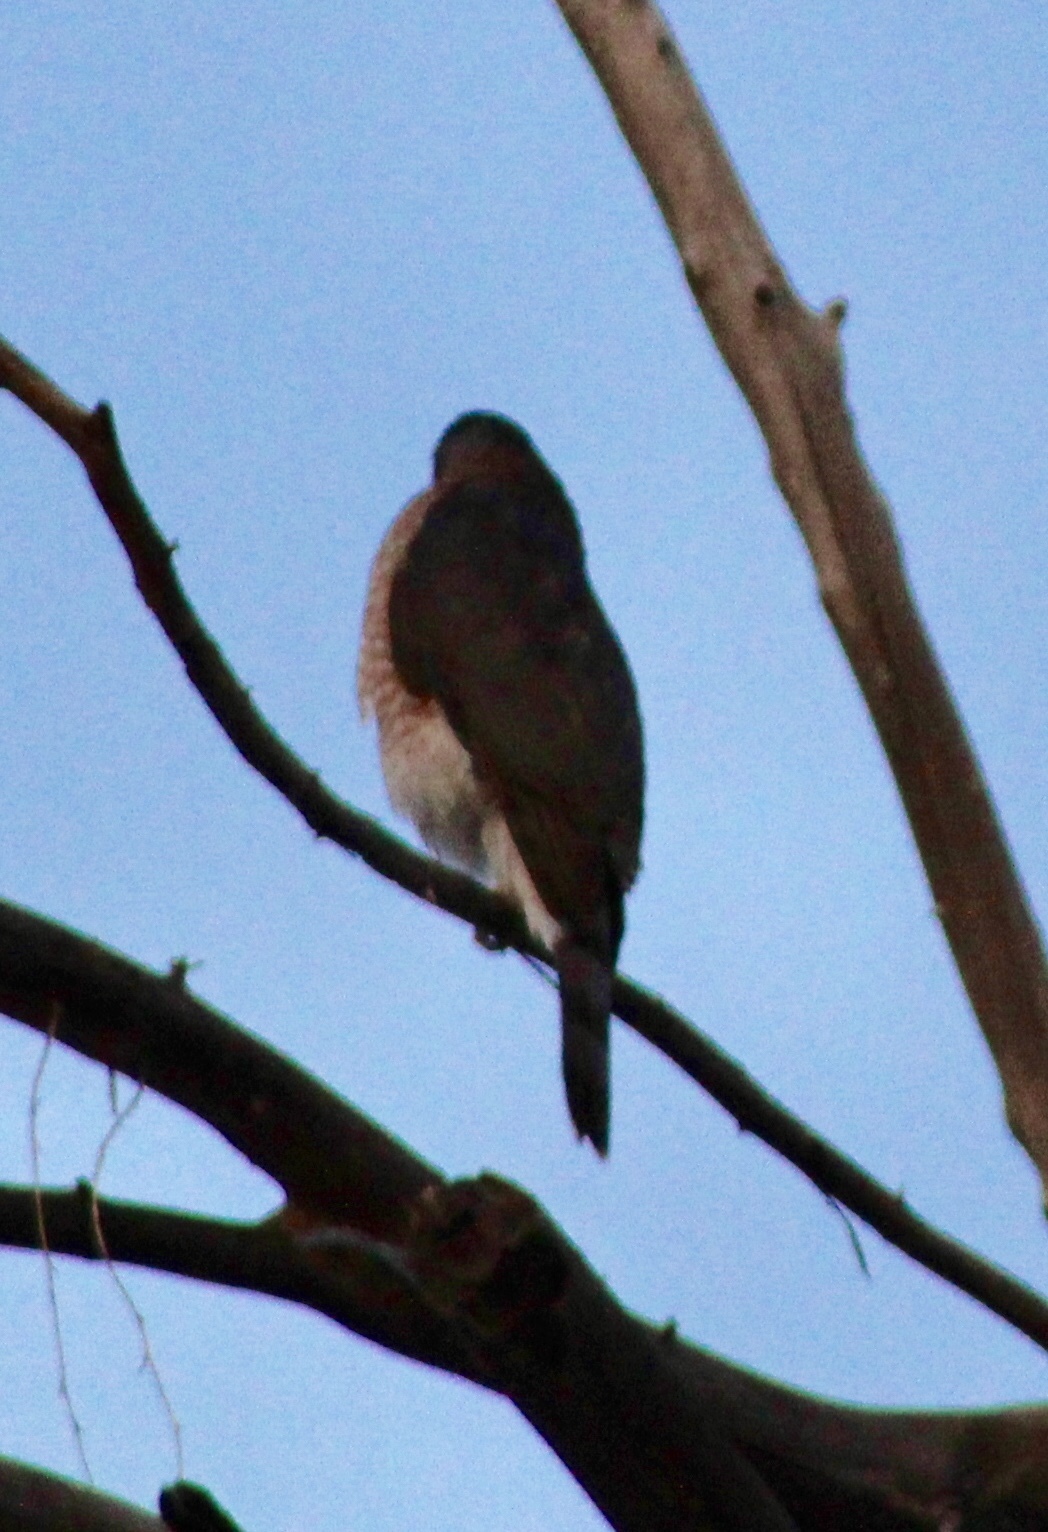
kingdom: Animalia
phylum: Chordata
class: Aves
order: Accipitriformes
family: Accipitridae
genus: Accipiter
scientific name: Accipiter cooperii
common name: Cooper's hawk
